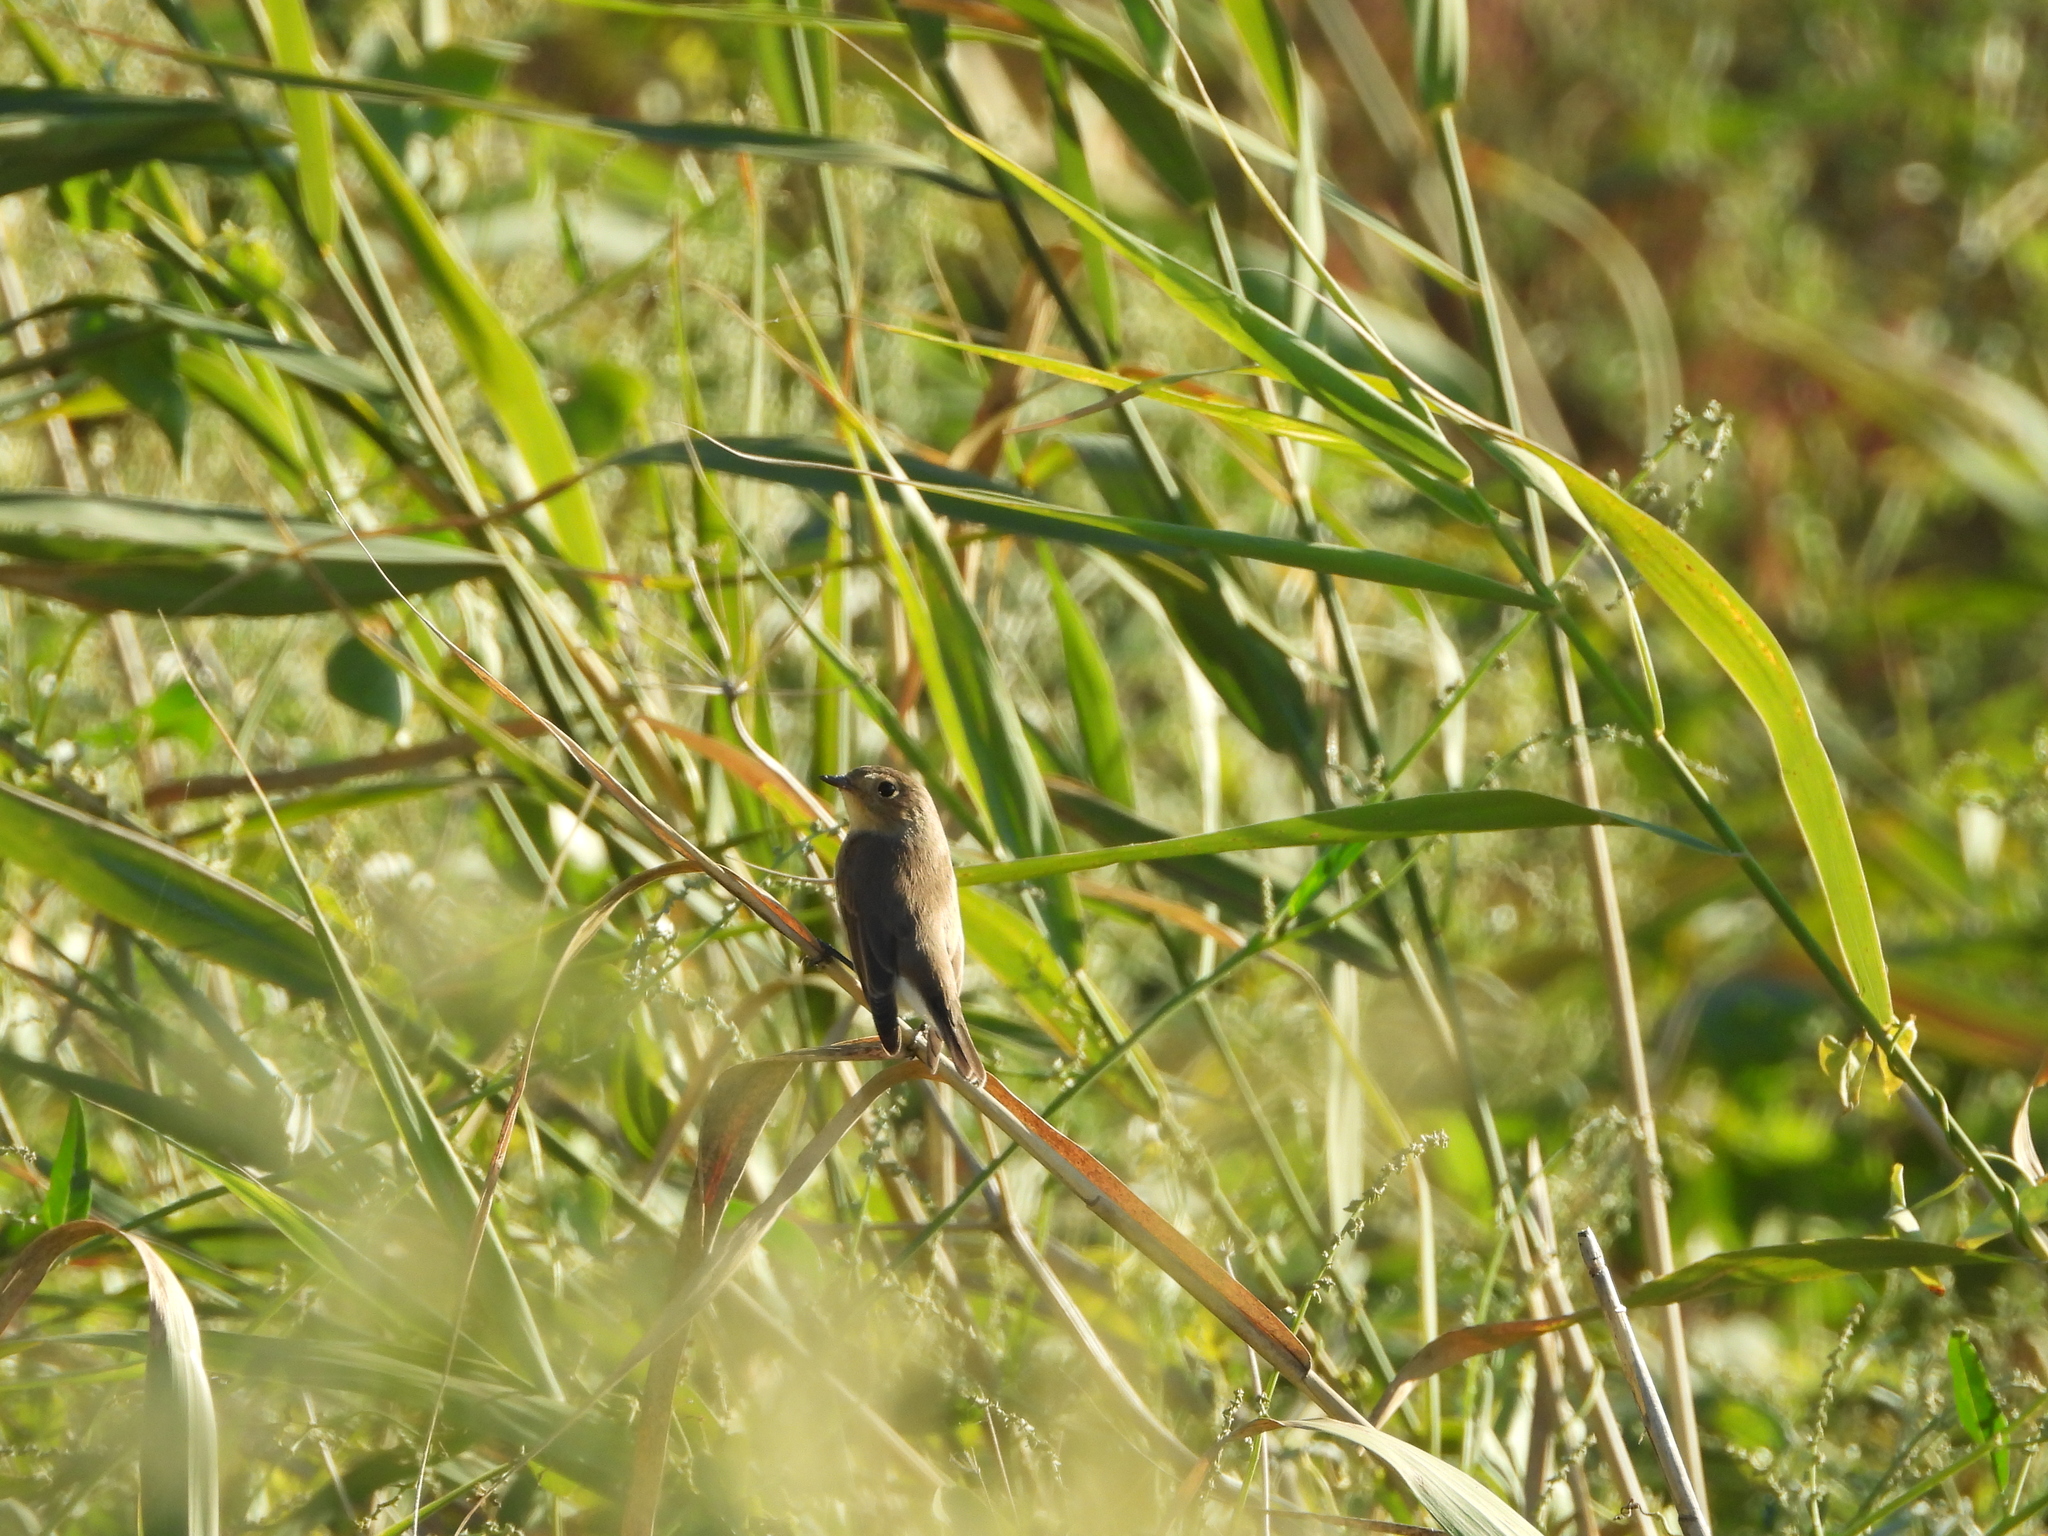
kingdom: Animalia
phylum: Chordata
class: Aves
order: Passeriformes
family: Muscicapidae
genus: Ficedula
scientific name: Ficedula parva
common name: Red-breasted flycatcher
